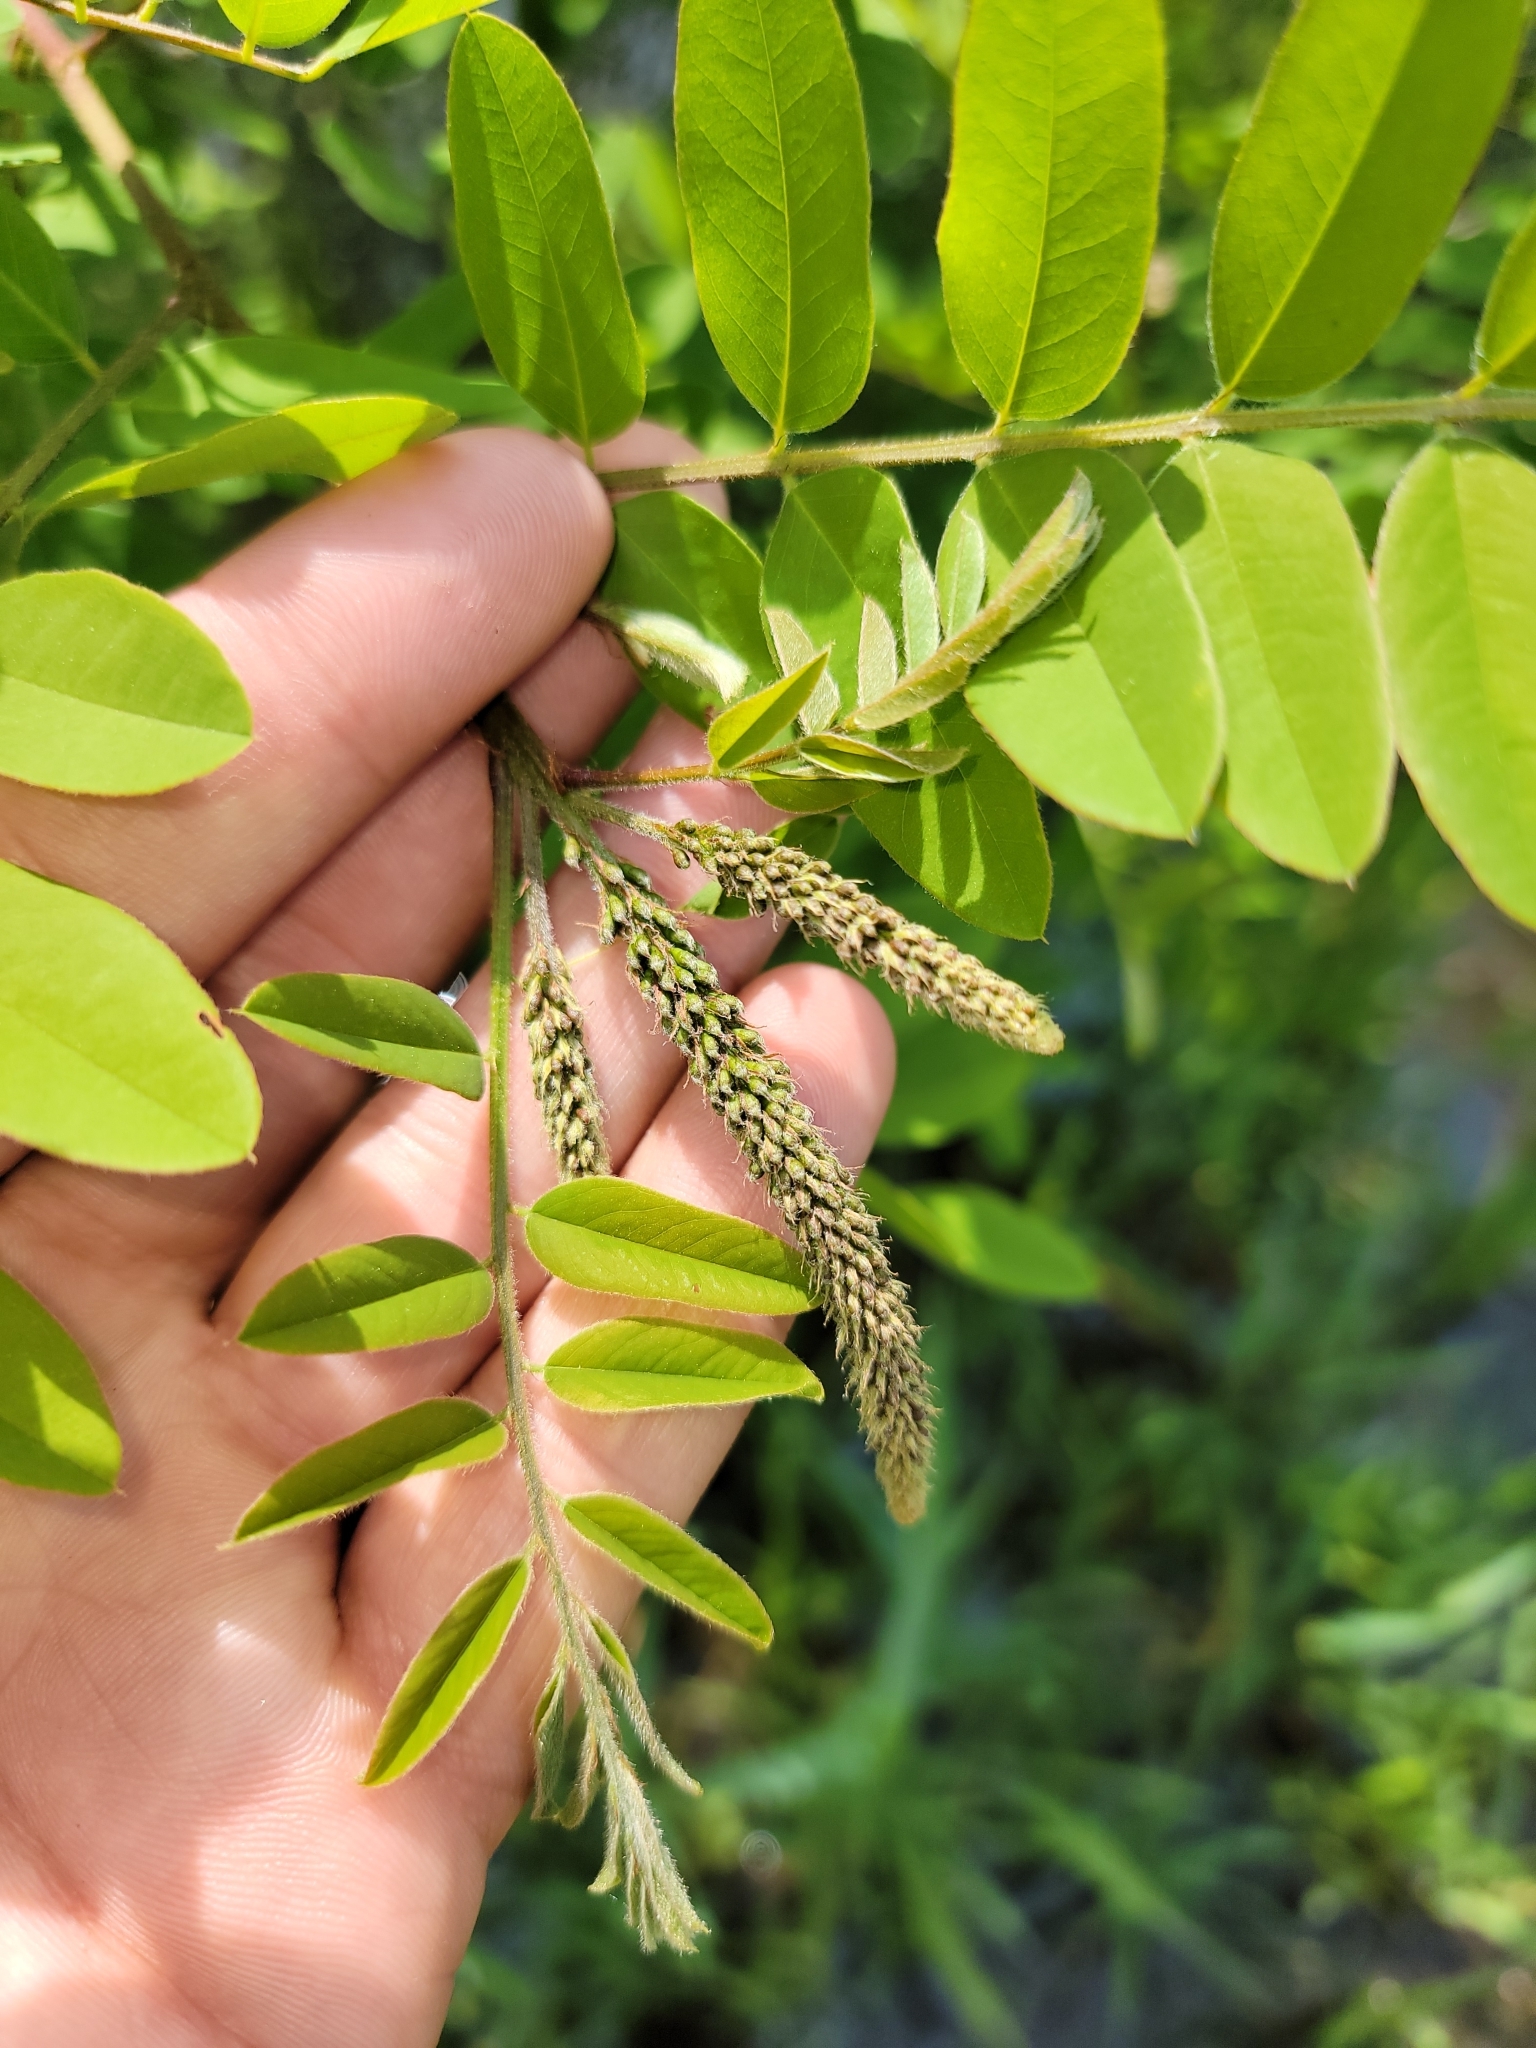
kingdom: Plantae
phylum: Tracheophyta
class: Magnoliopsida
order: Fabales
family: Fabaceae
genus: Amorpha
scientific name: Amorpha fruticosa
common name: False indigo
